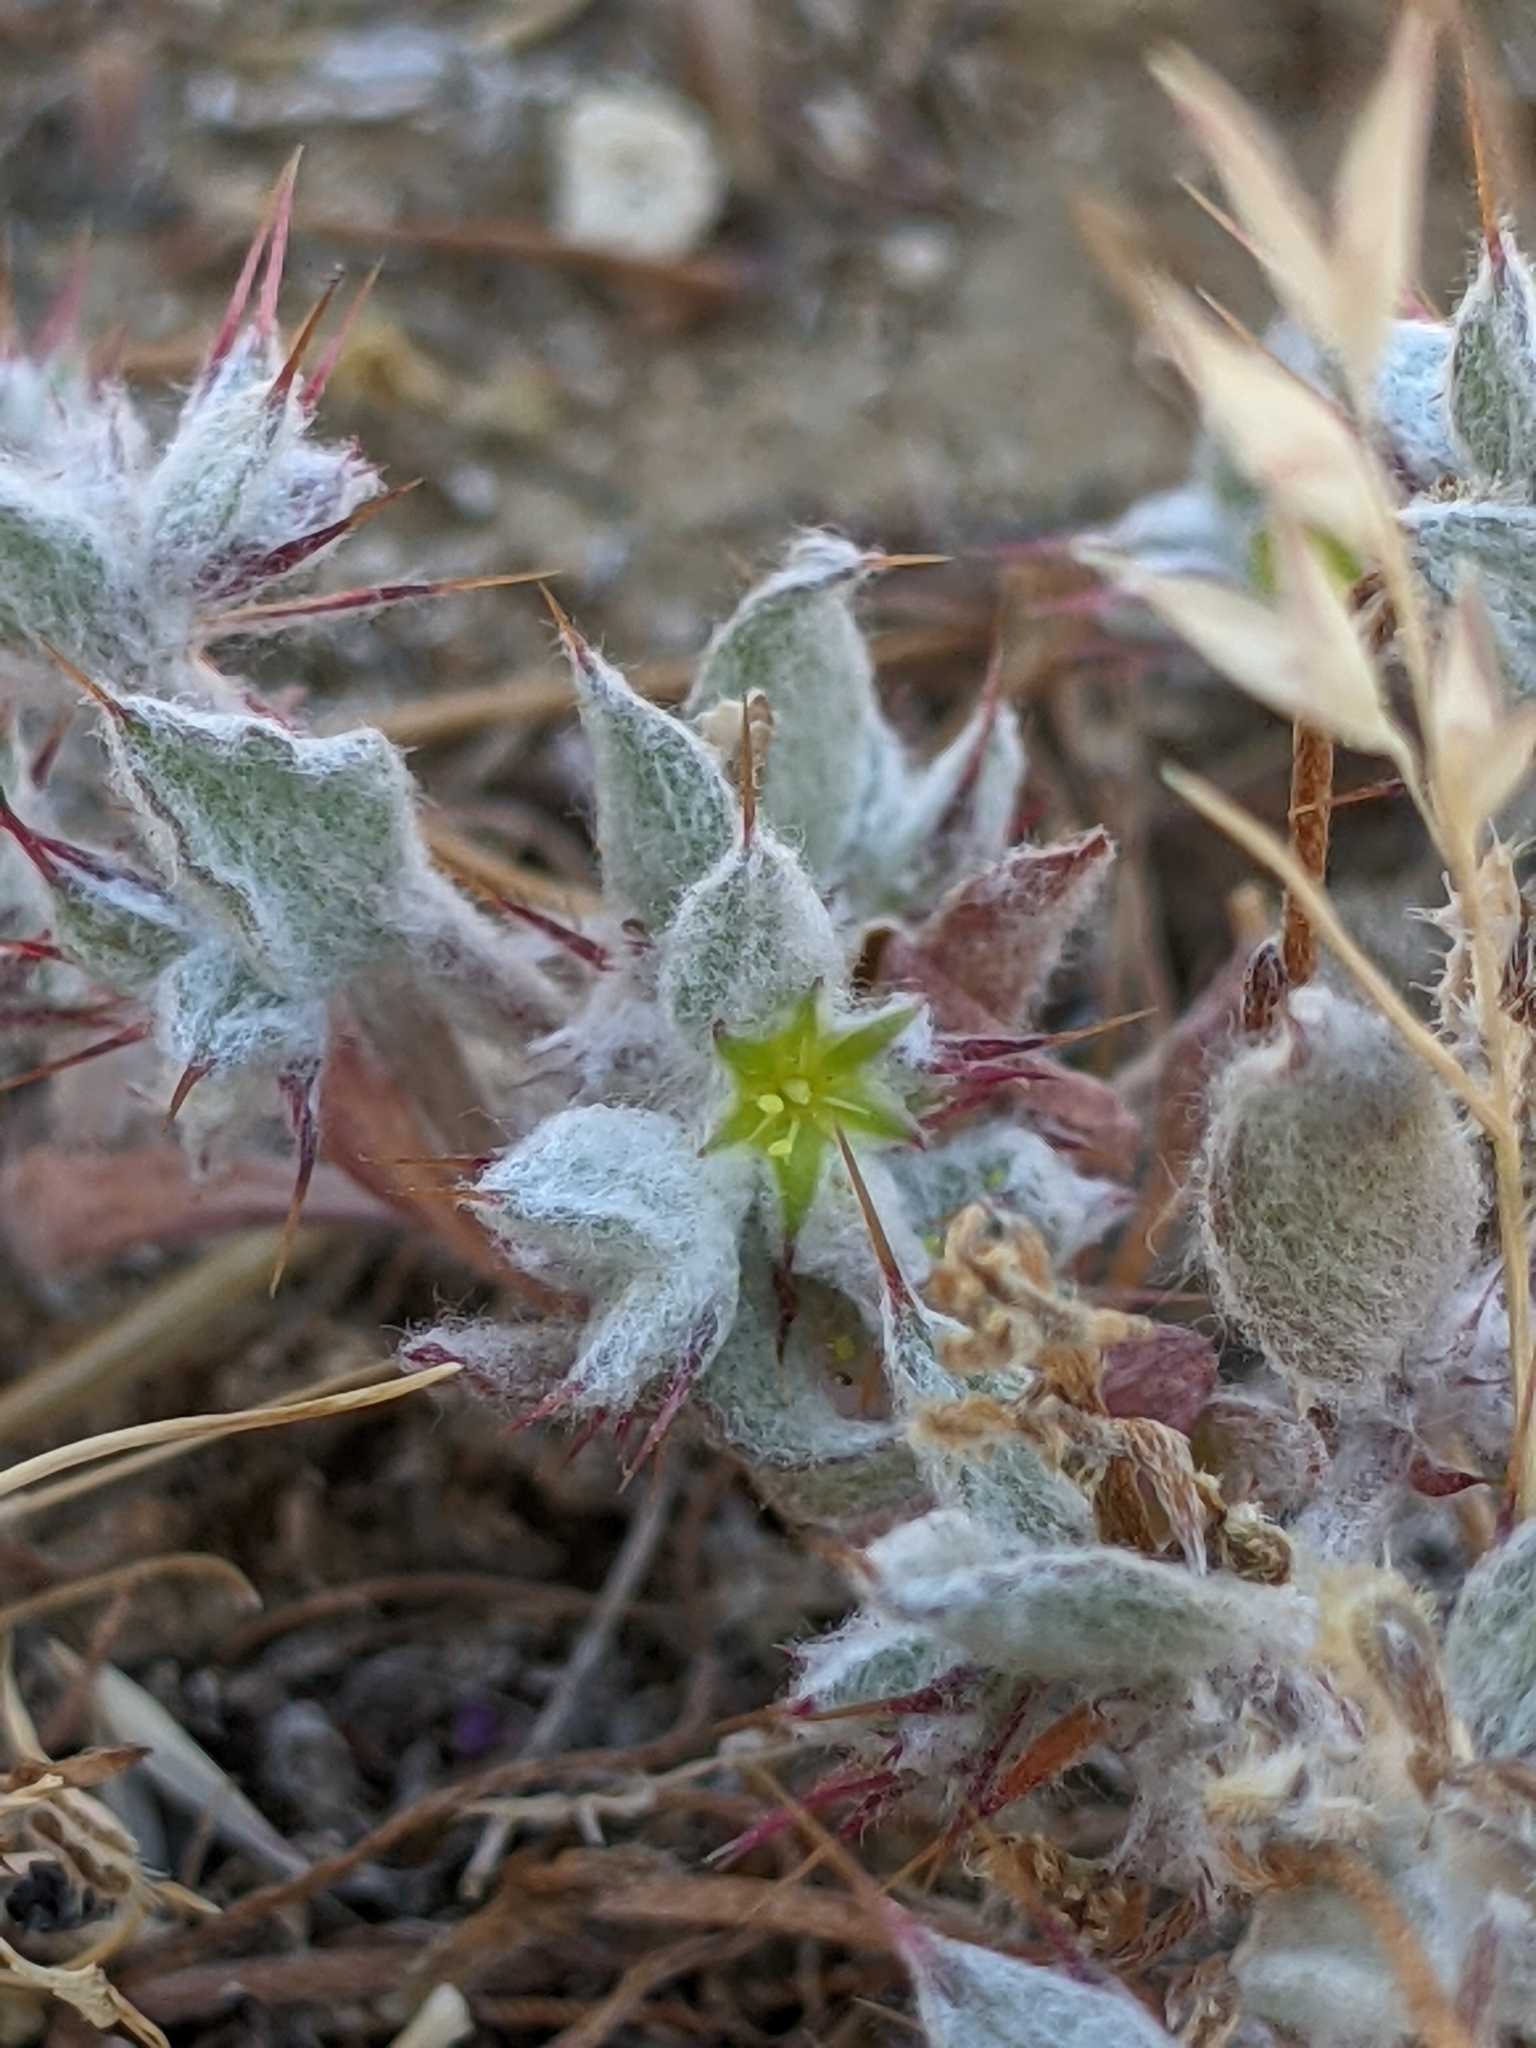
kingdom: Plantae
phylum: Tracheophyta
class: Magnoliopsida
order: Caryophyllales
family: Polygonaceae
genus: Hollisteria
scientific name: Hollisteria lanata
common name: False spike-flower
